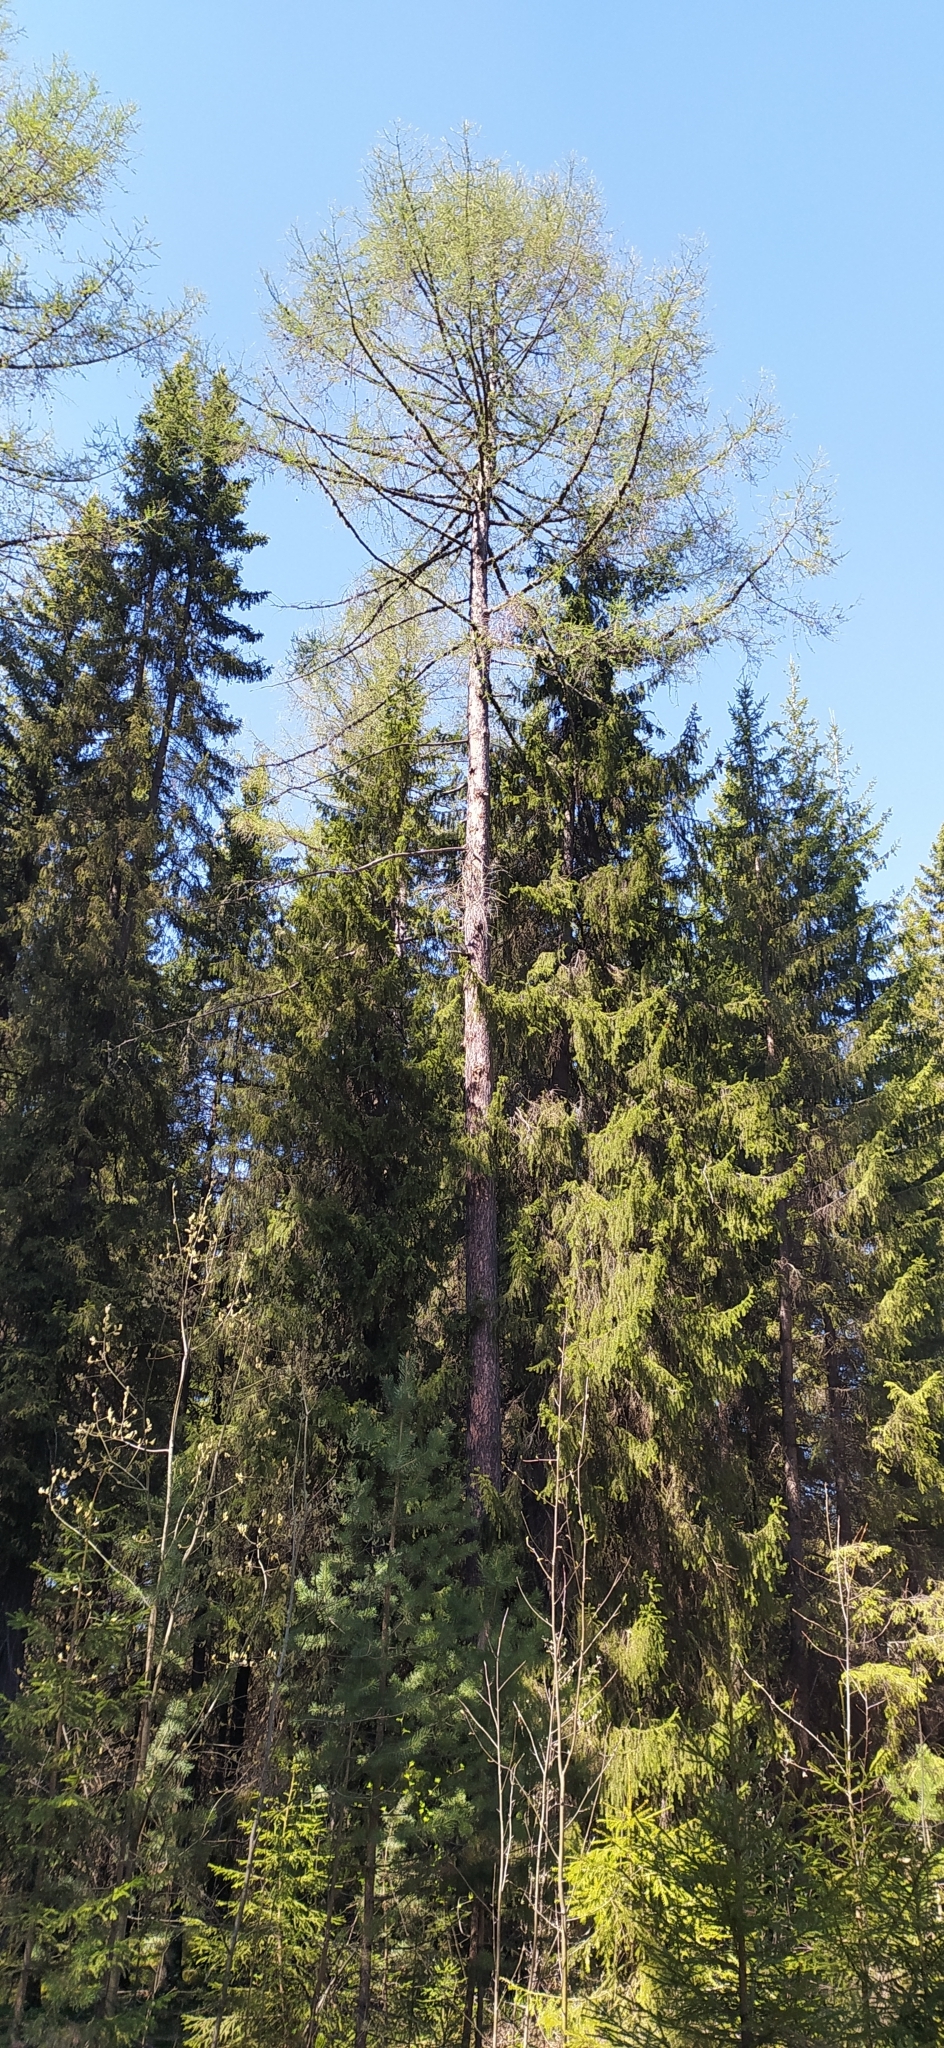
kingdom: Plantae
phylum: Tracheophyta
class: Pinopsida
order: Pinales
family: Pinaceae
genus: Larix
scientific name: Larix sibirica
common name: Siberian larch
